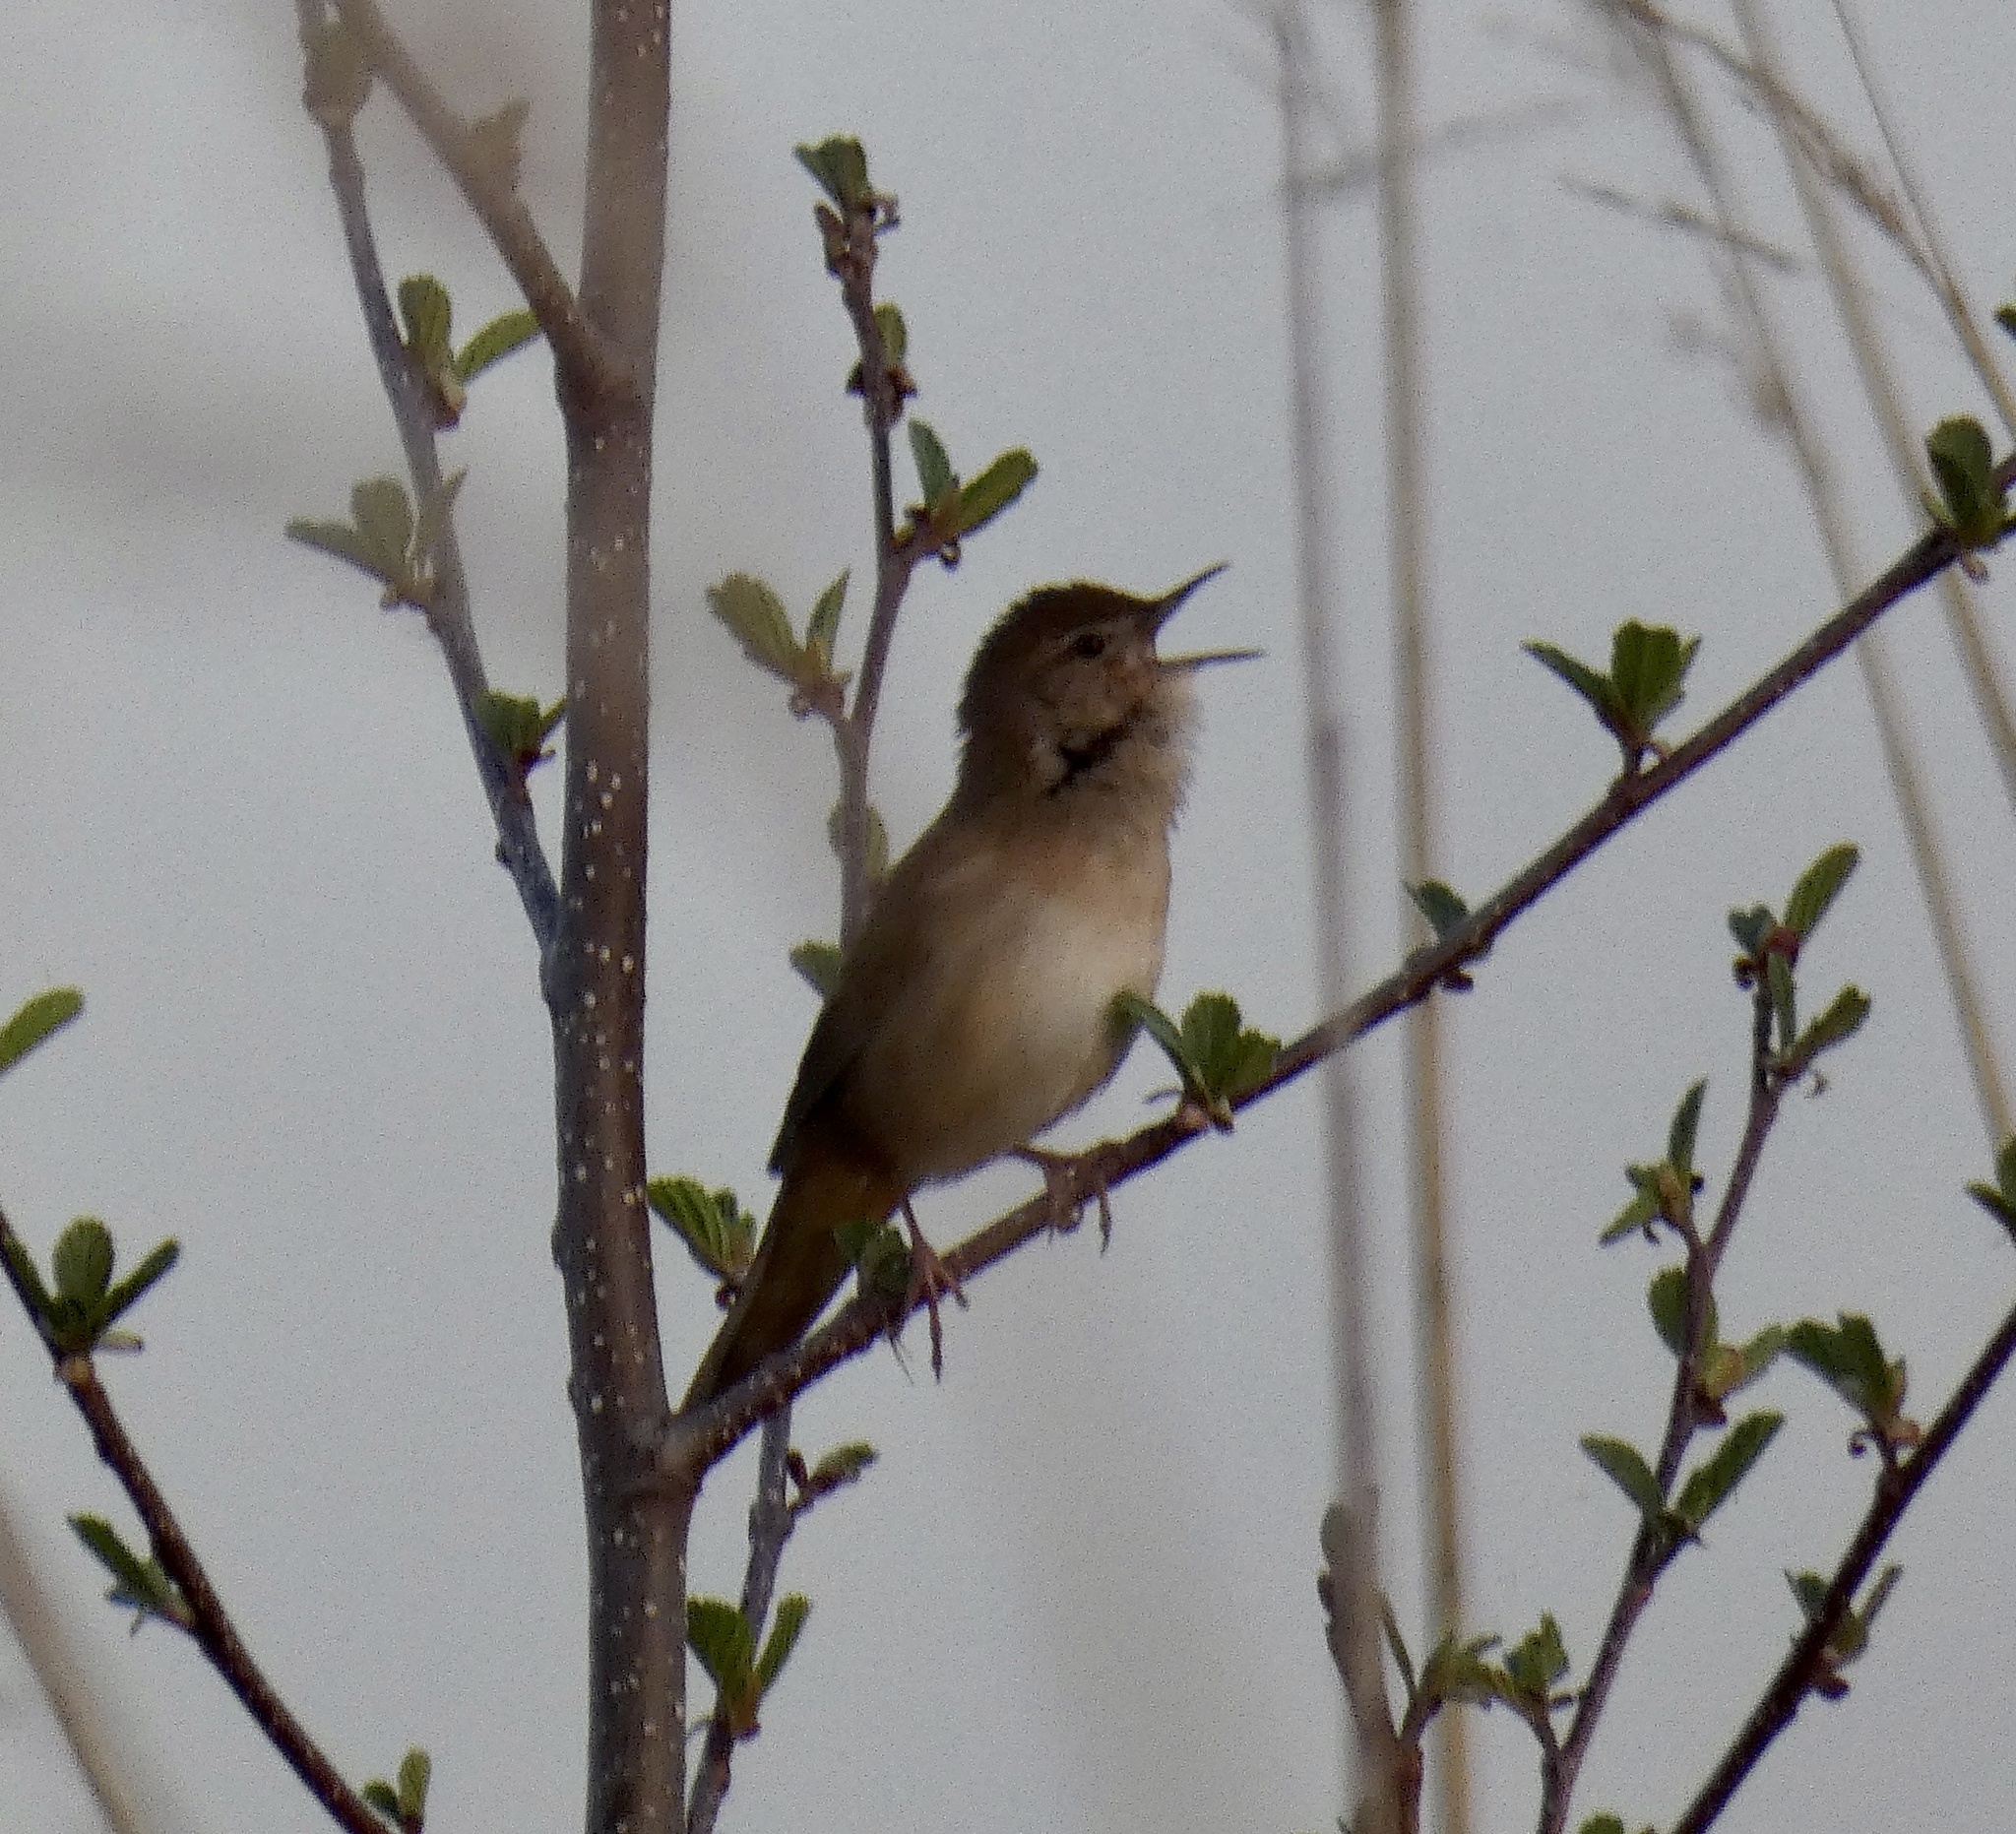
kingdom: Animalia
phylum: Chordata
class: Aves
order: Passeriformes
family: Locustellidae
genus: Locustella
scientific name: Locustella luscinioides
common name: Savi's warbler
